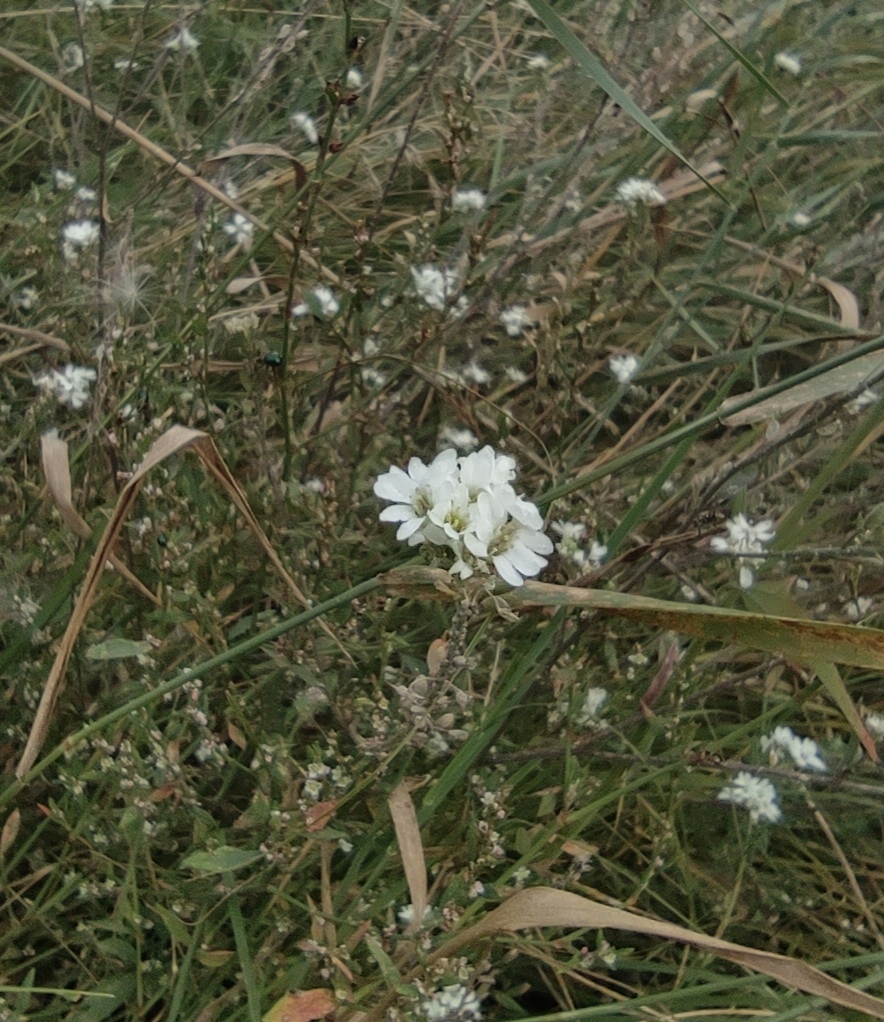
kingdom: Plantae
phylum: Tracheophyta
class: Magnoliopsida
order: Brassicales
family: Brassicaceae
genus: Berteroa
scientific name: Berteroa incana
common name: Hoary alison
